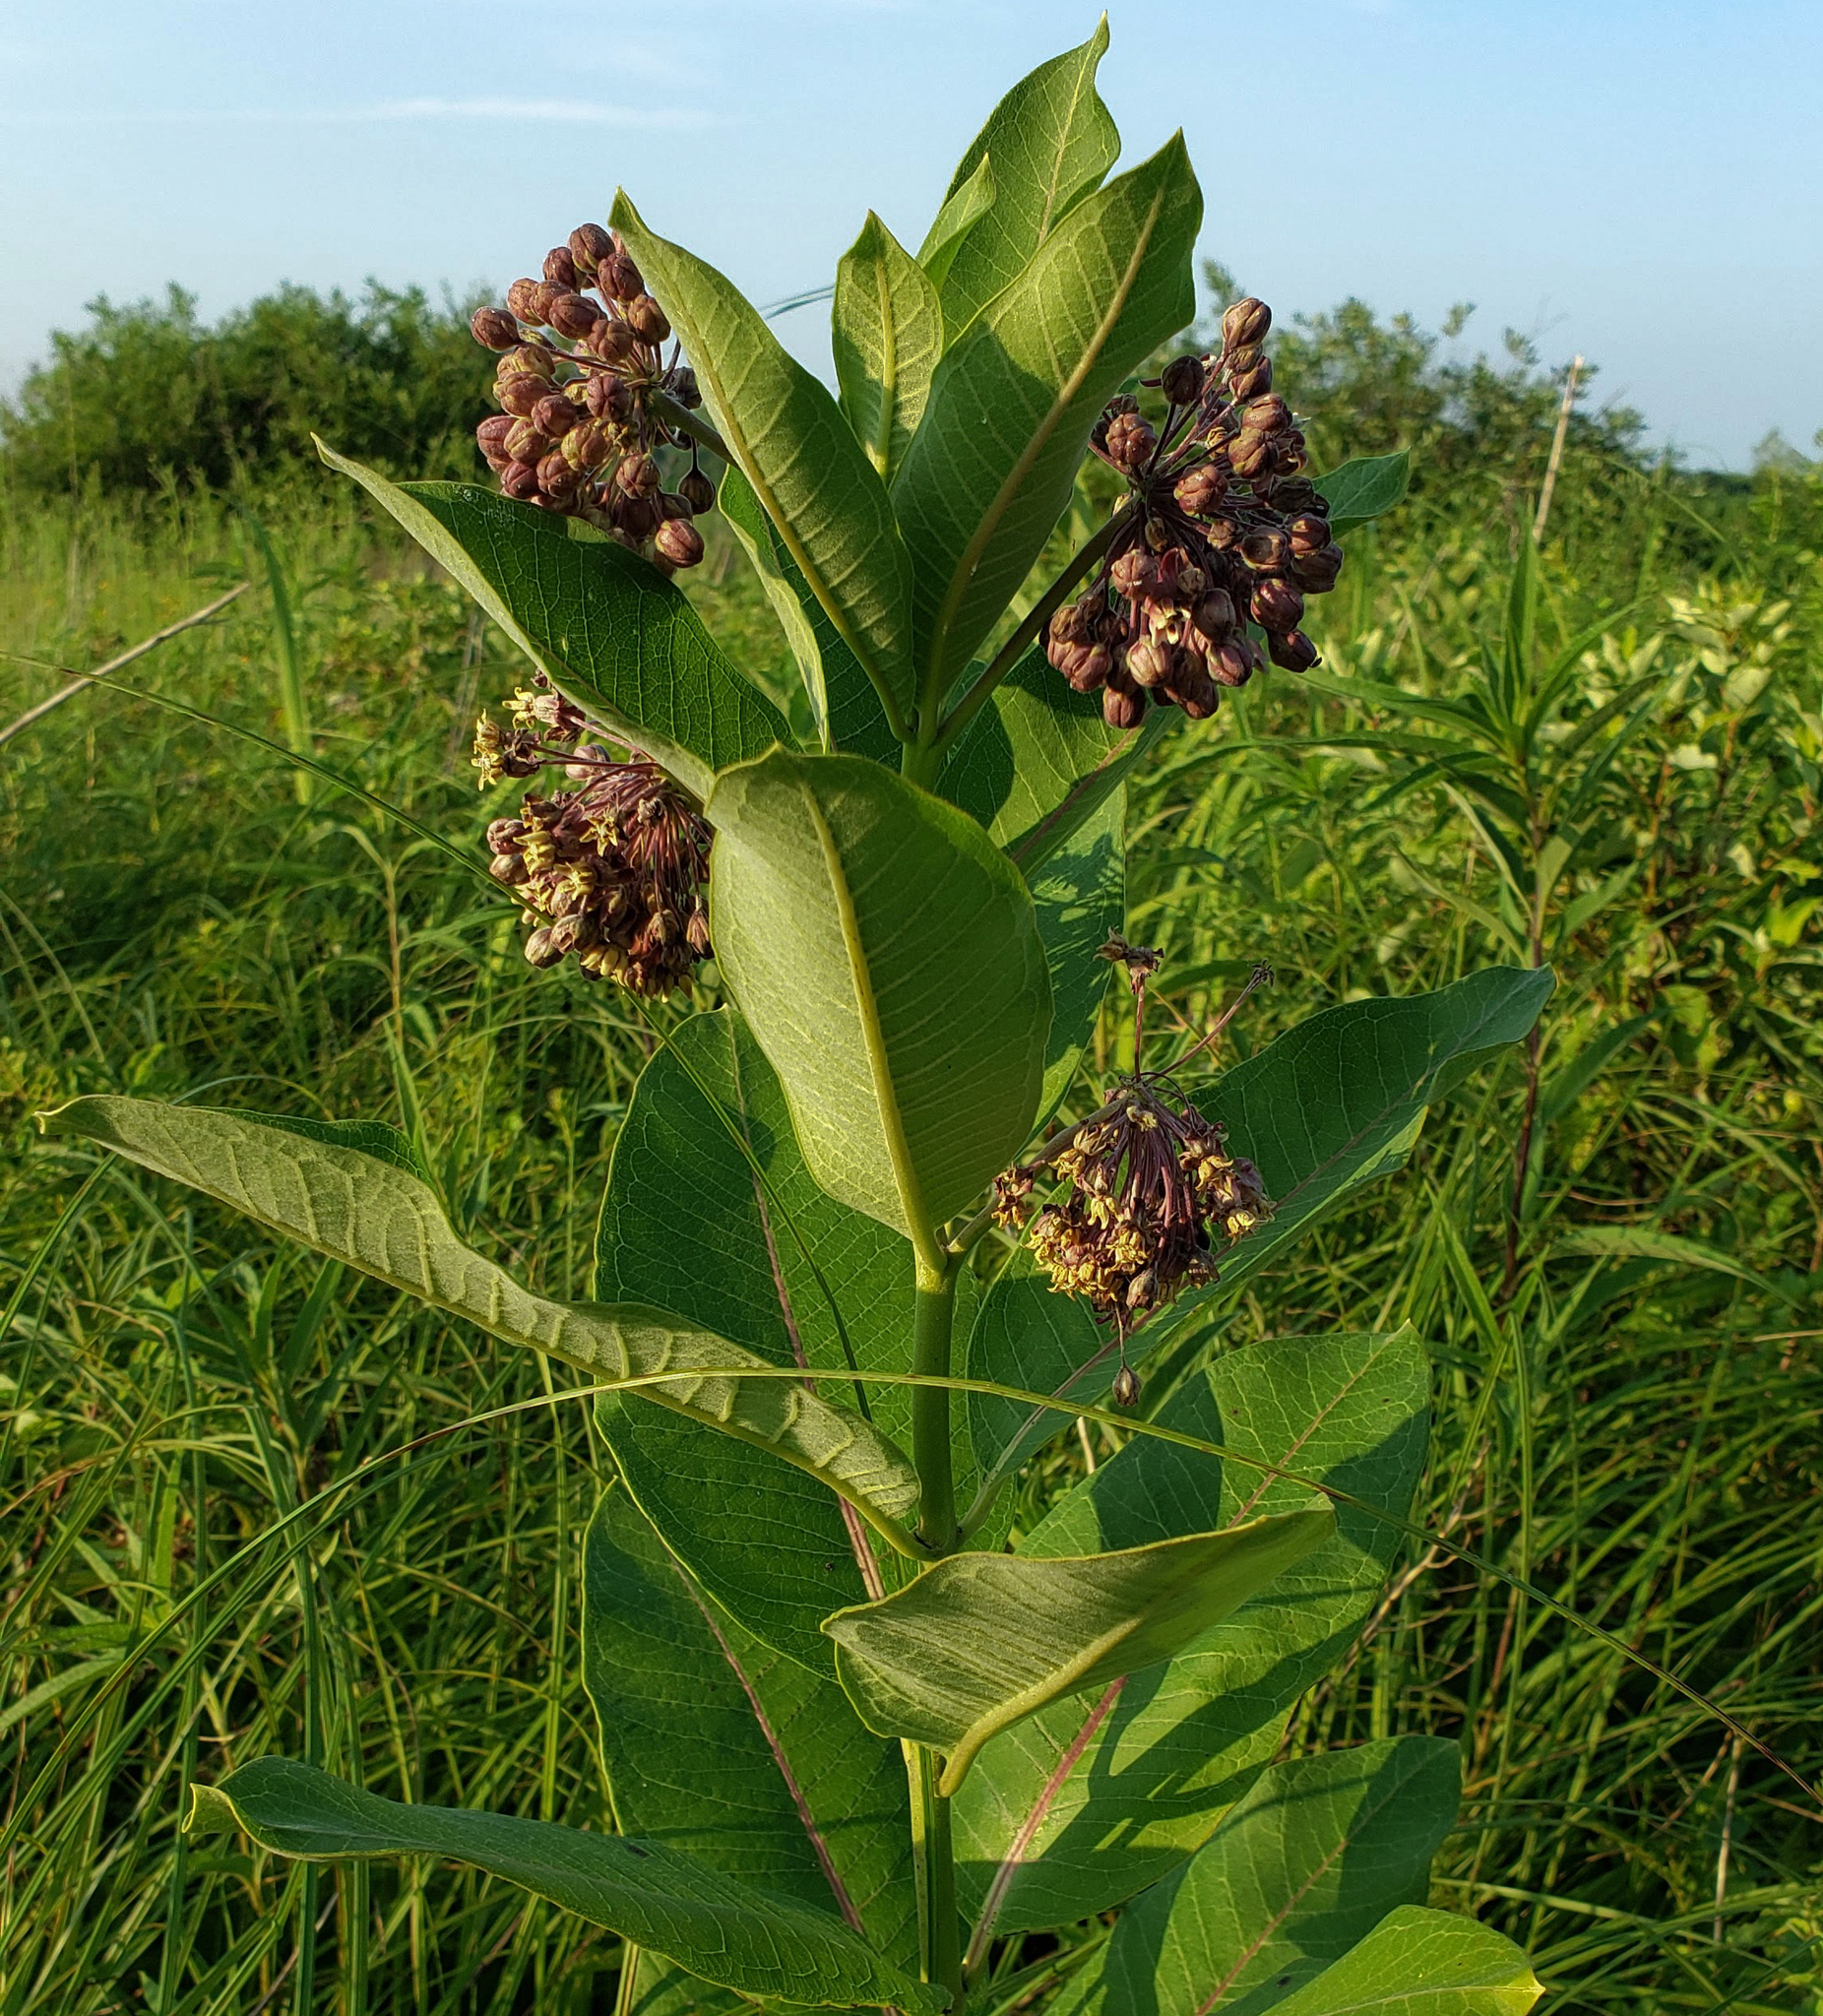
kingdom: Plantae
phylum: Tracheophyta
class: Magnoliopsida
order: Gentianales
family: Apocynaceae
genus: Asclepias
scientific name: Asclepias syriaca
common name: Common milkweed
